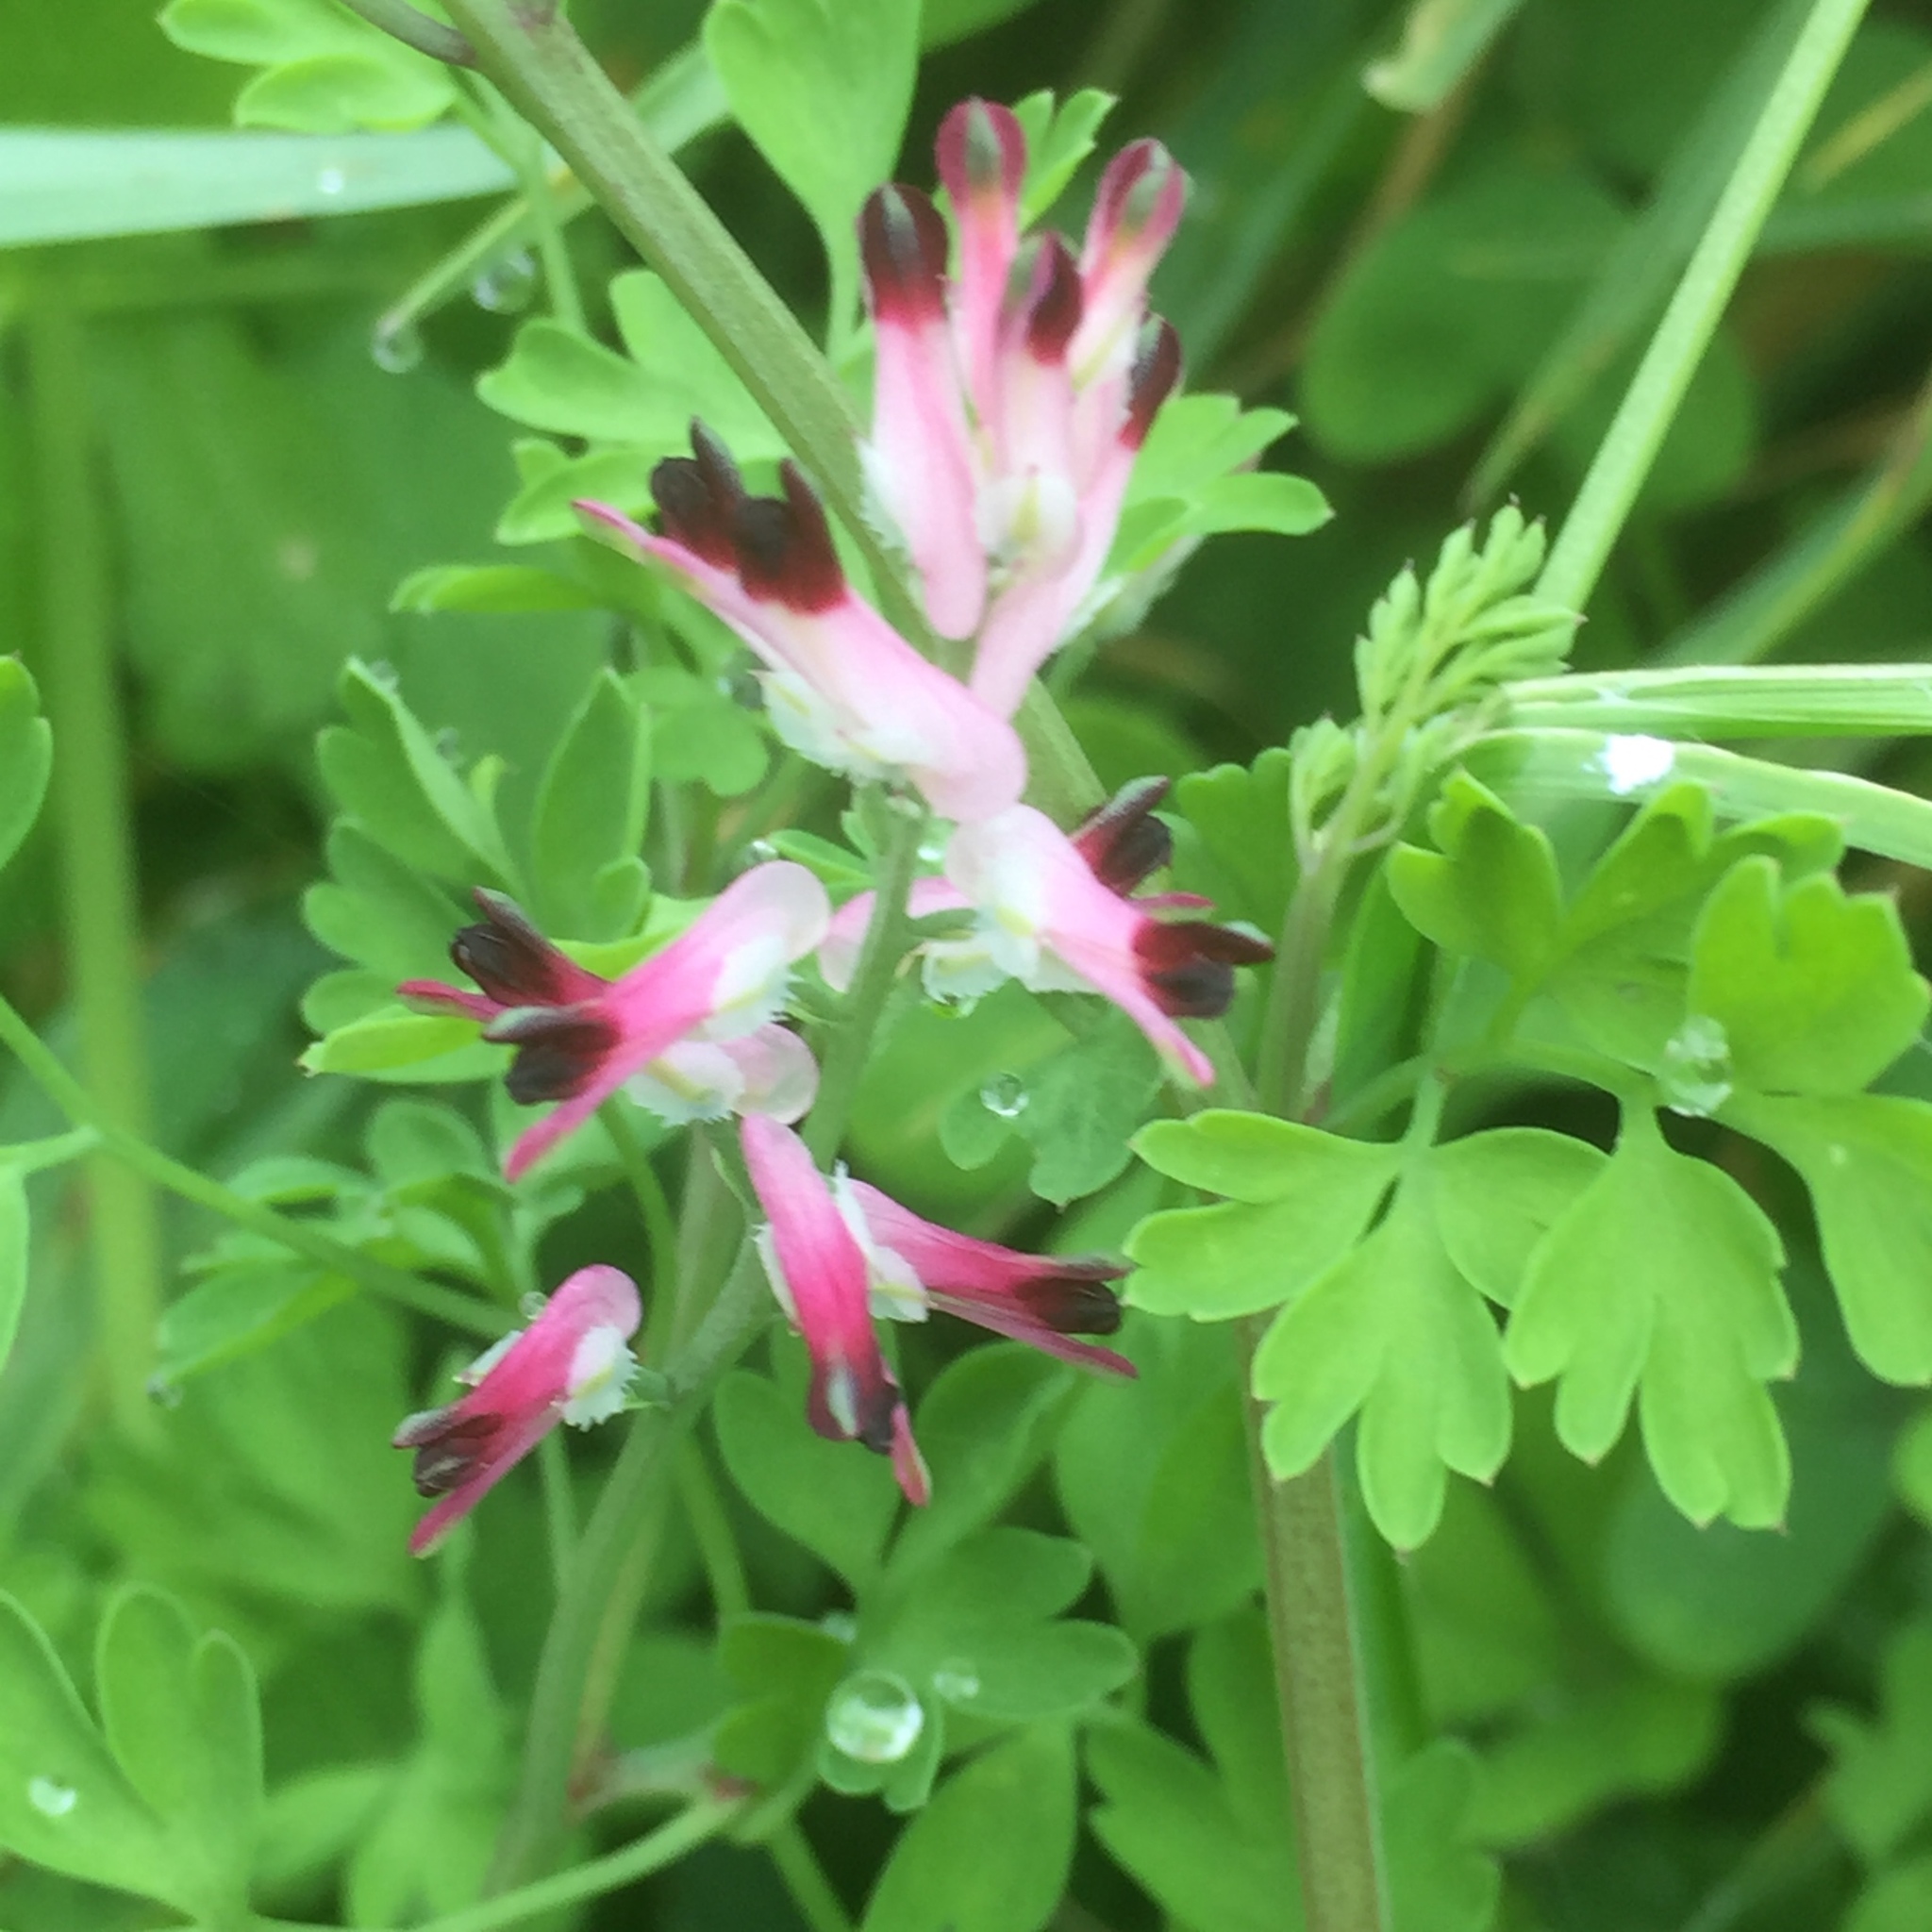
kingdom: Plantae
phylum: Tracheophyta
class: Magnoliopsida
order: Ranunculales
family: Papaveraceae
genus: Fumaria
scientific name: Fumaria muralis
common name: Common ramping-fumitory
